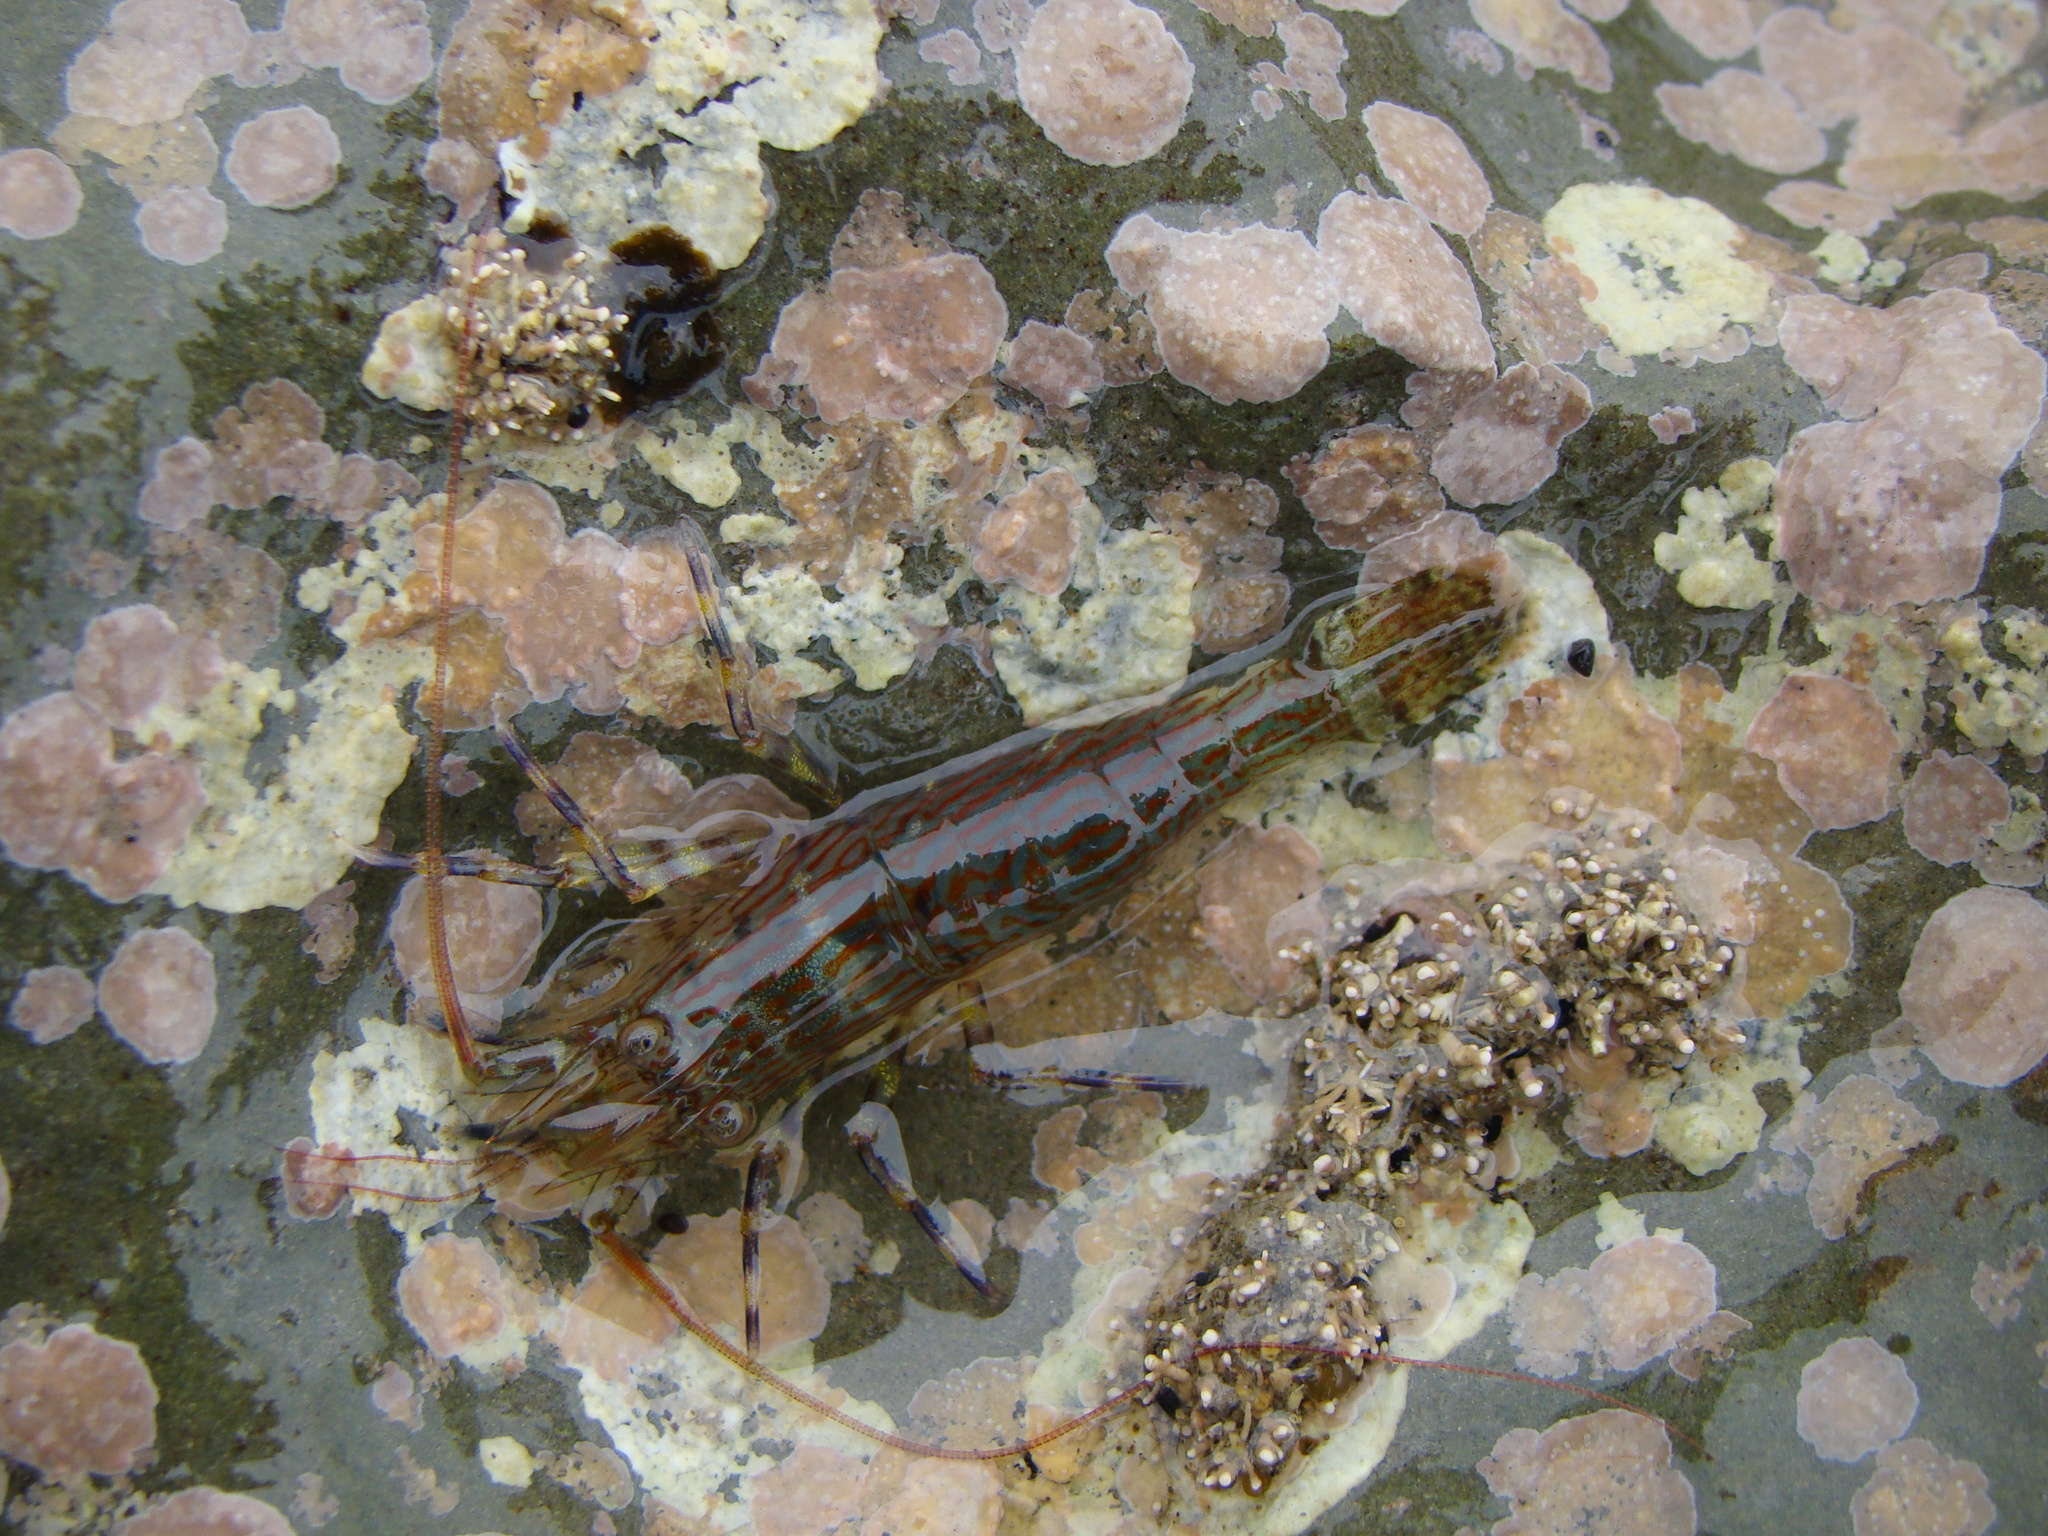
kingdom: Animalia
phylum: Arthropoda
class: Malacostraca
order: Decapoda
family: Hippolytidae
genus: Alope
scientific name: Alope spinifrons
